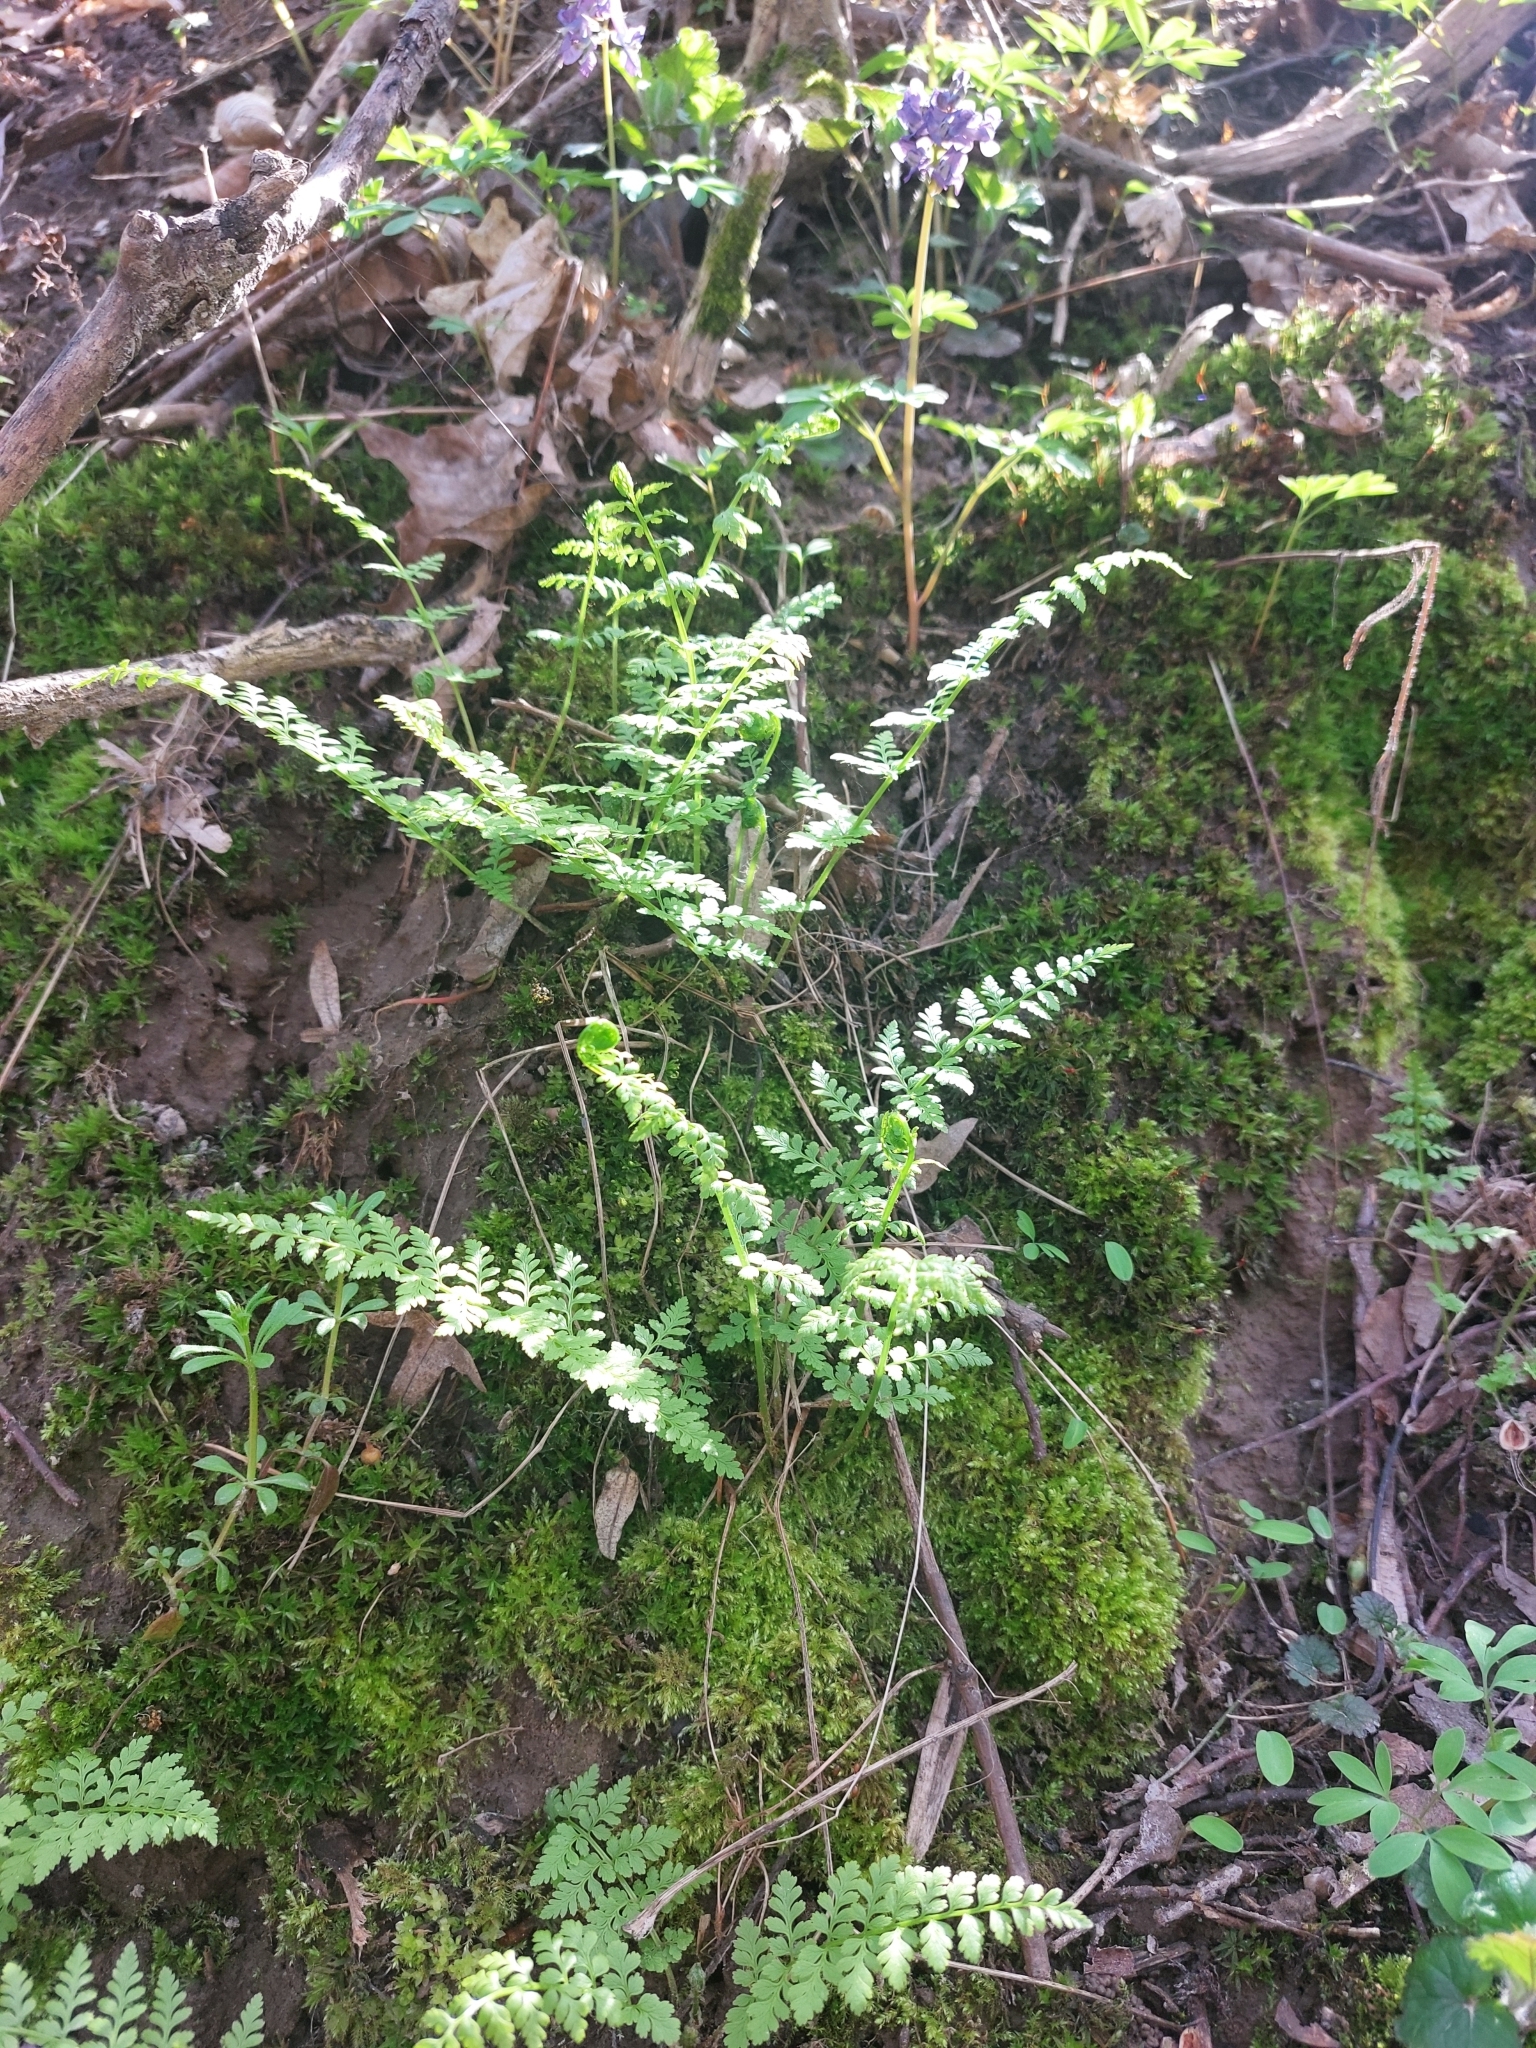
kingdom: Plantae
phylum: Tracheophyta
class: Polypodiopsida
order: Polypodiales
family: Cystopteridaceae
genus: Cystopteris
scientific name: Cystopteris fragilis
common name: Brittle bladder fern
